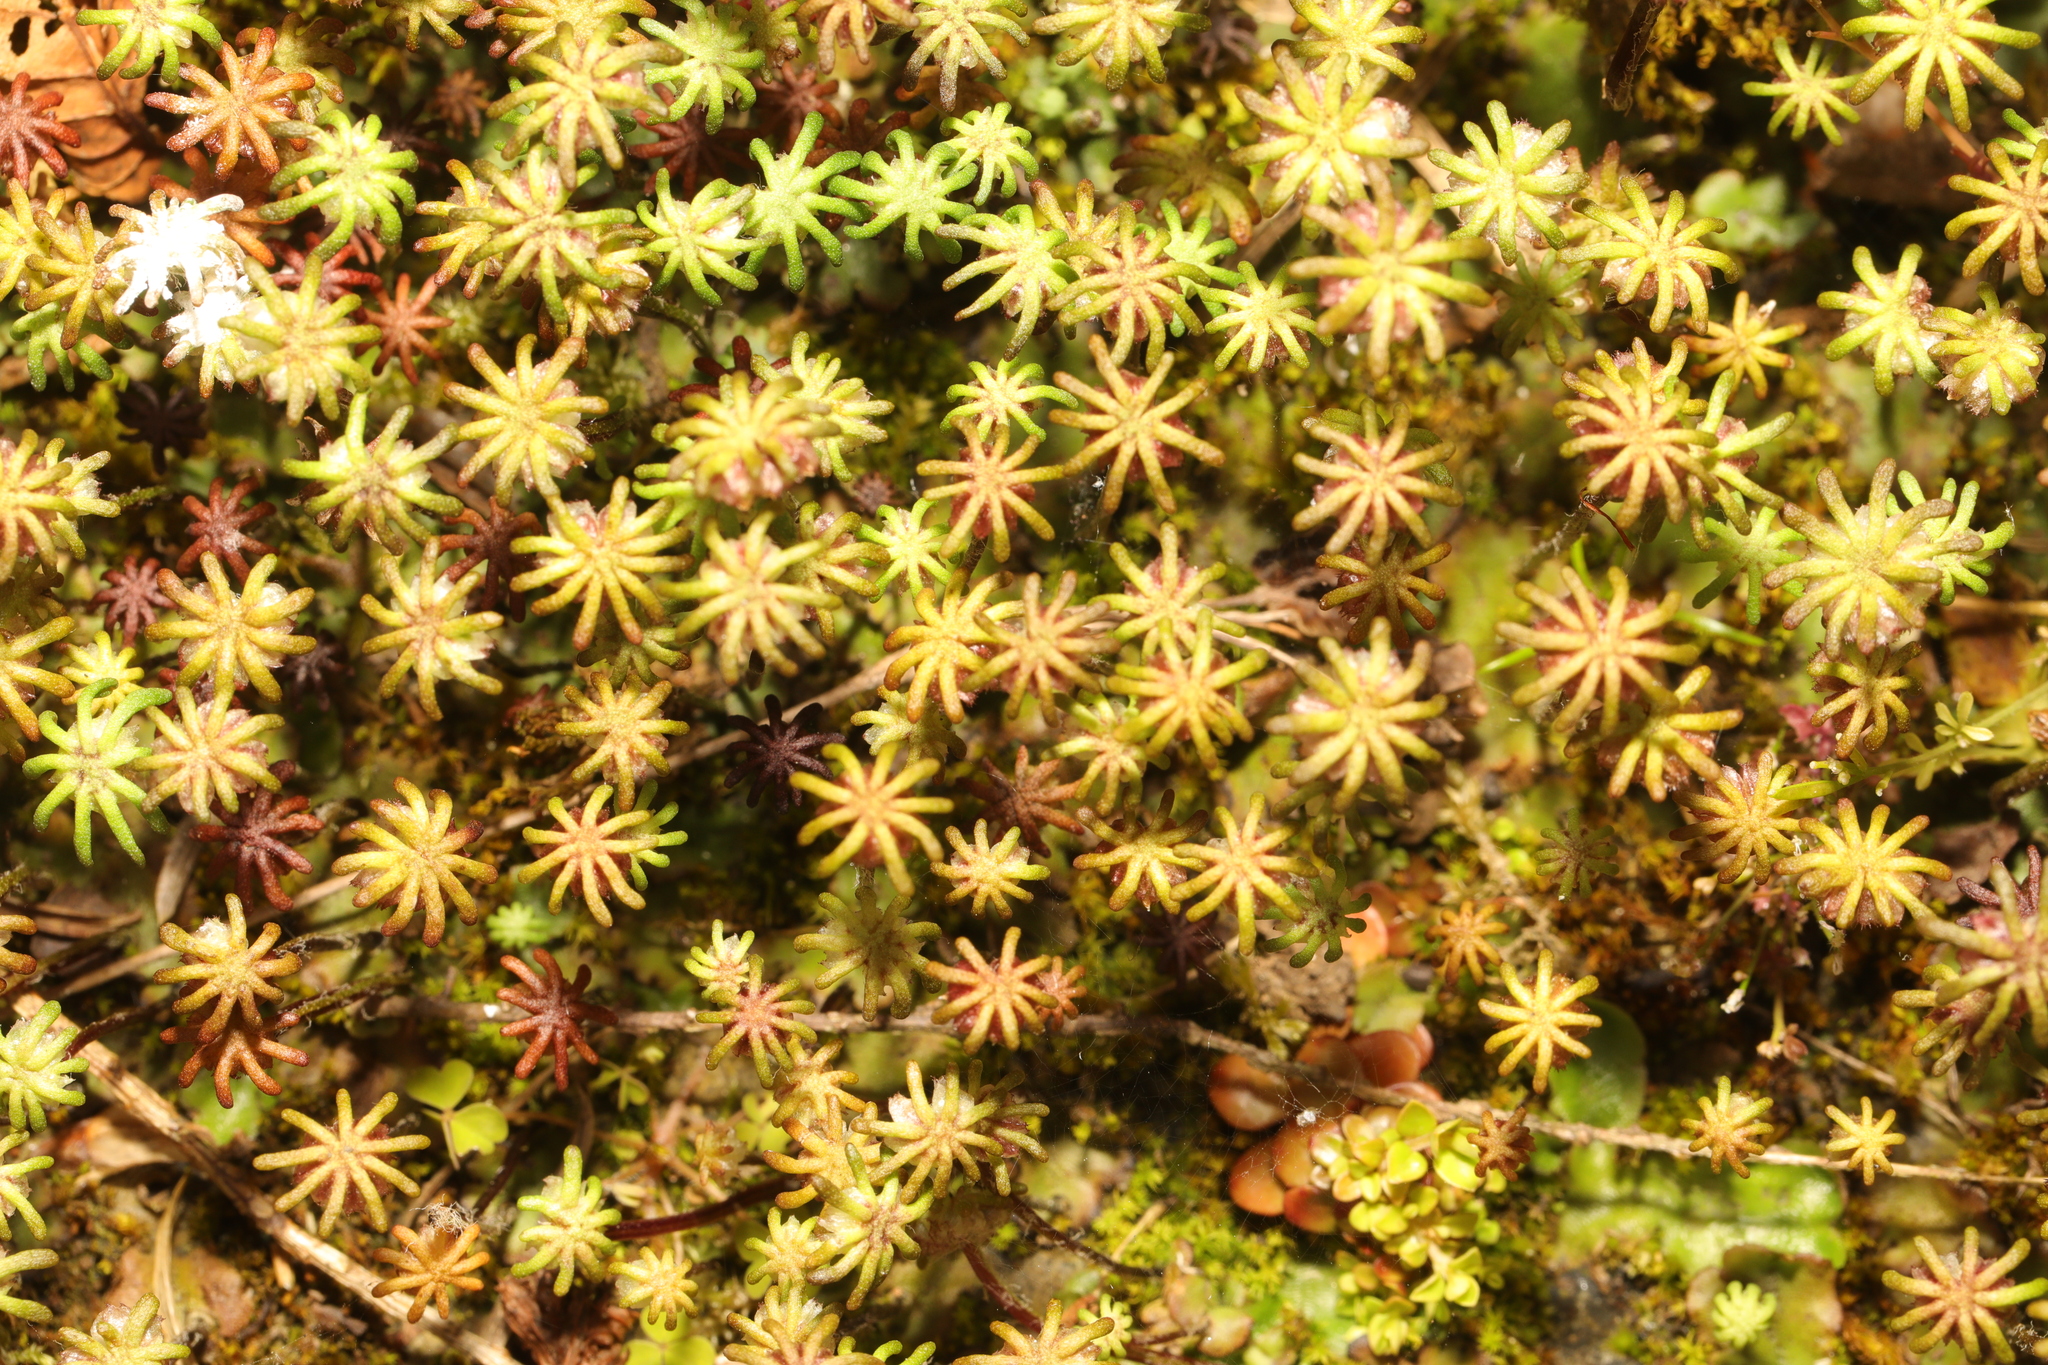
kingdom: Plantae
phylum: Marchantiophyta
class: Marchantiopsida
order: Marchantiales
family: Marchantiaceae
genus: Marchantia
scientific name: Marchantia polymorpha
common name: Common liverwort
